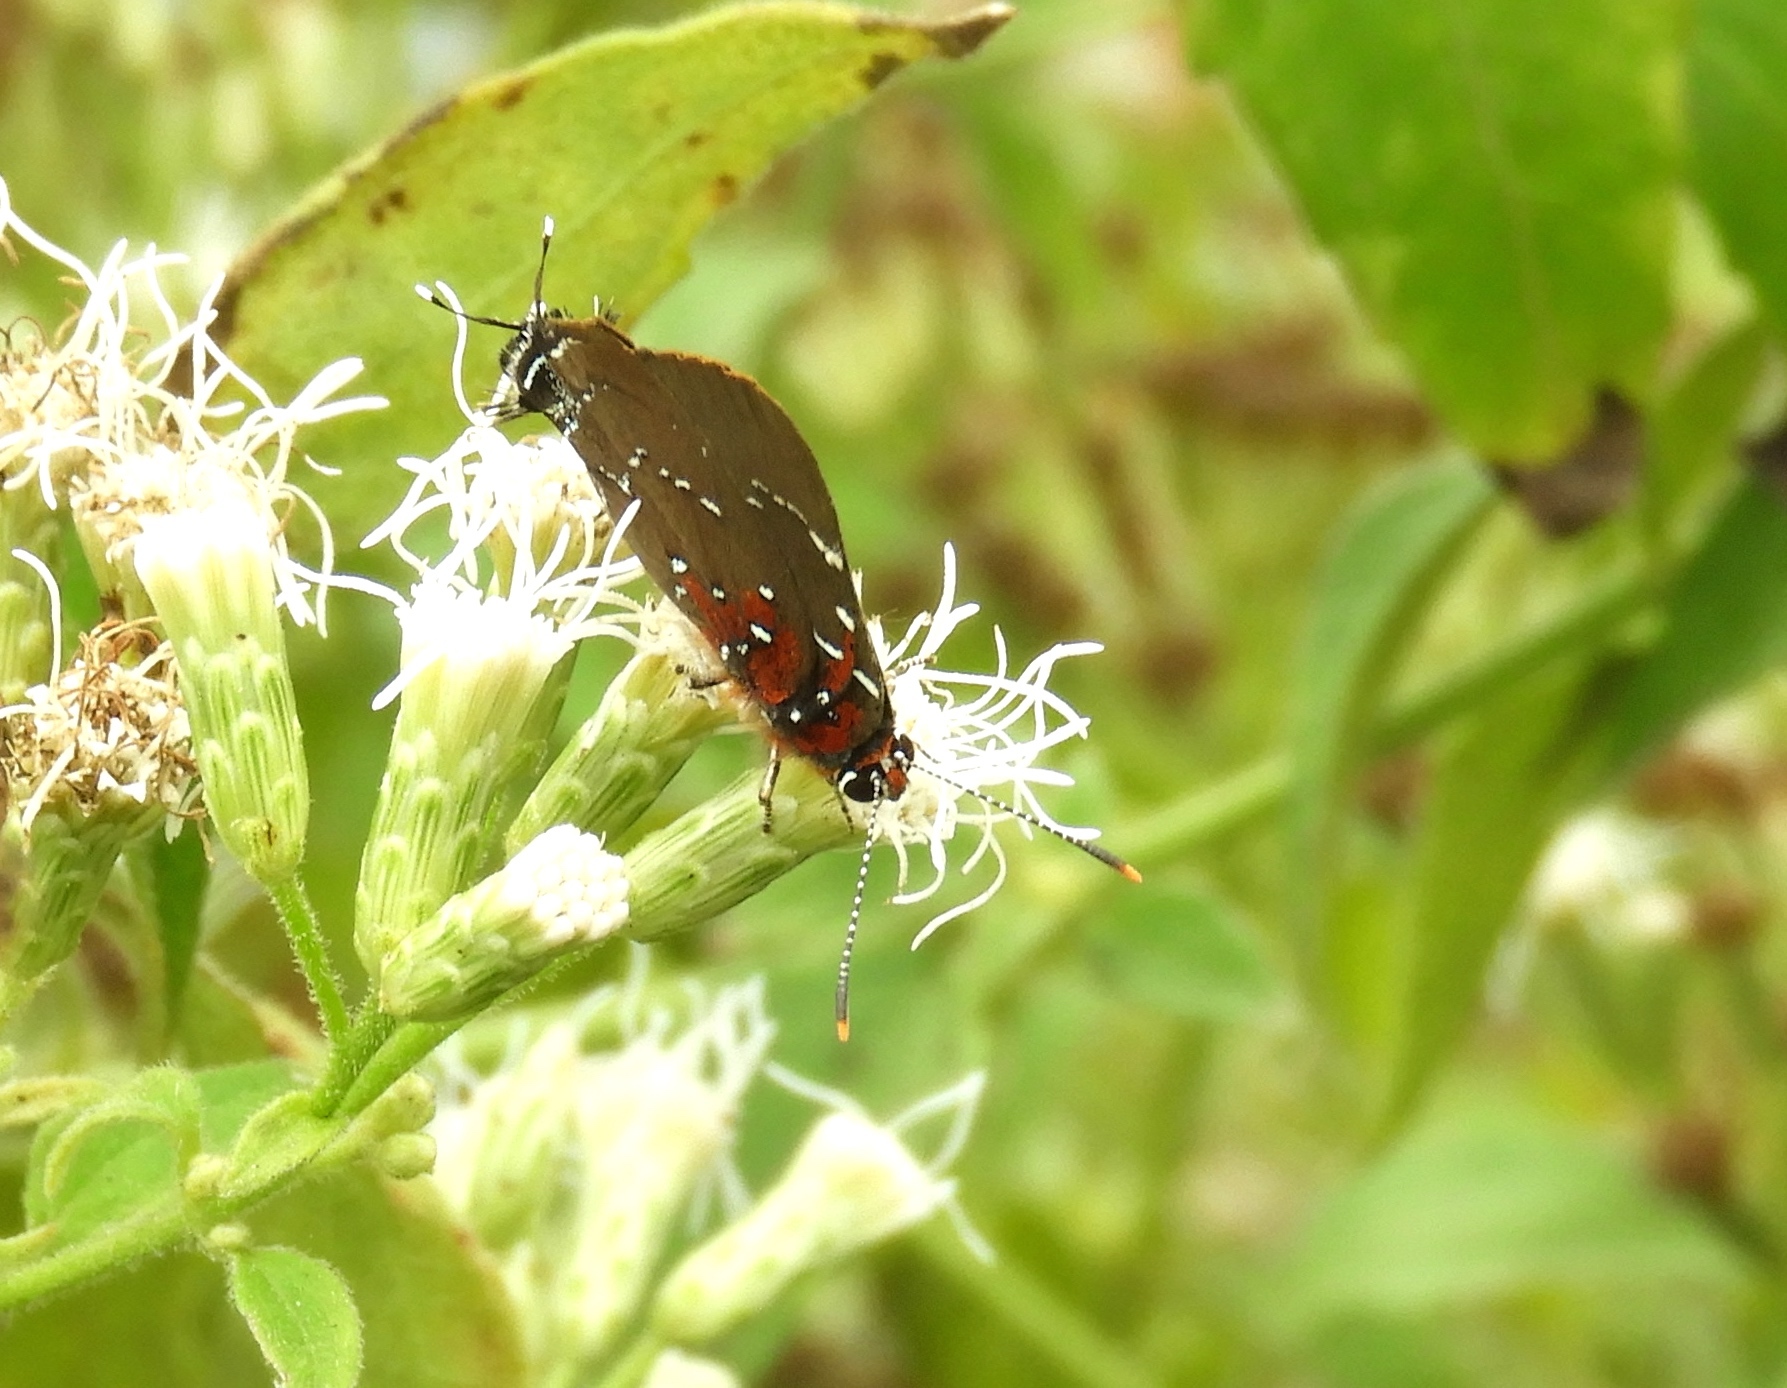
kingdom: Animalia
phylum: Arthropoda
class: Insecta
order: Lepidoptera
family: Lycaenidae
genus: Atlides
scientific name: Atlides Brangas neora
